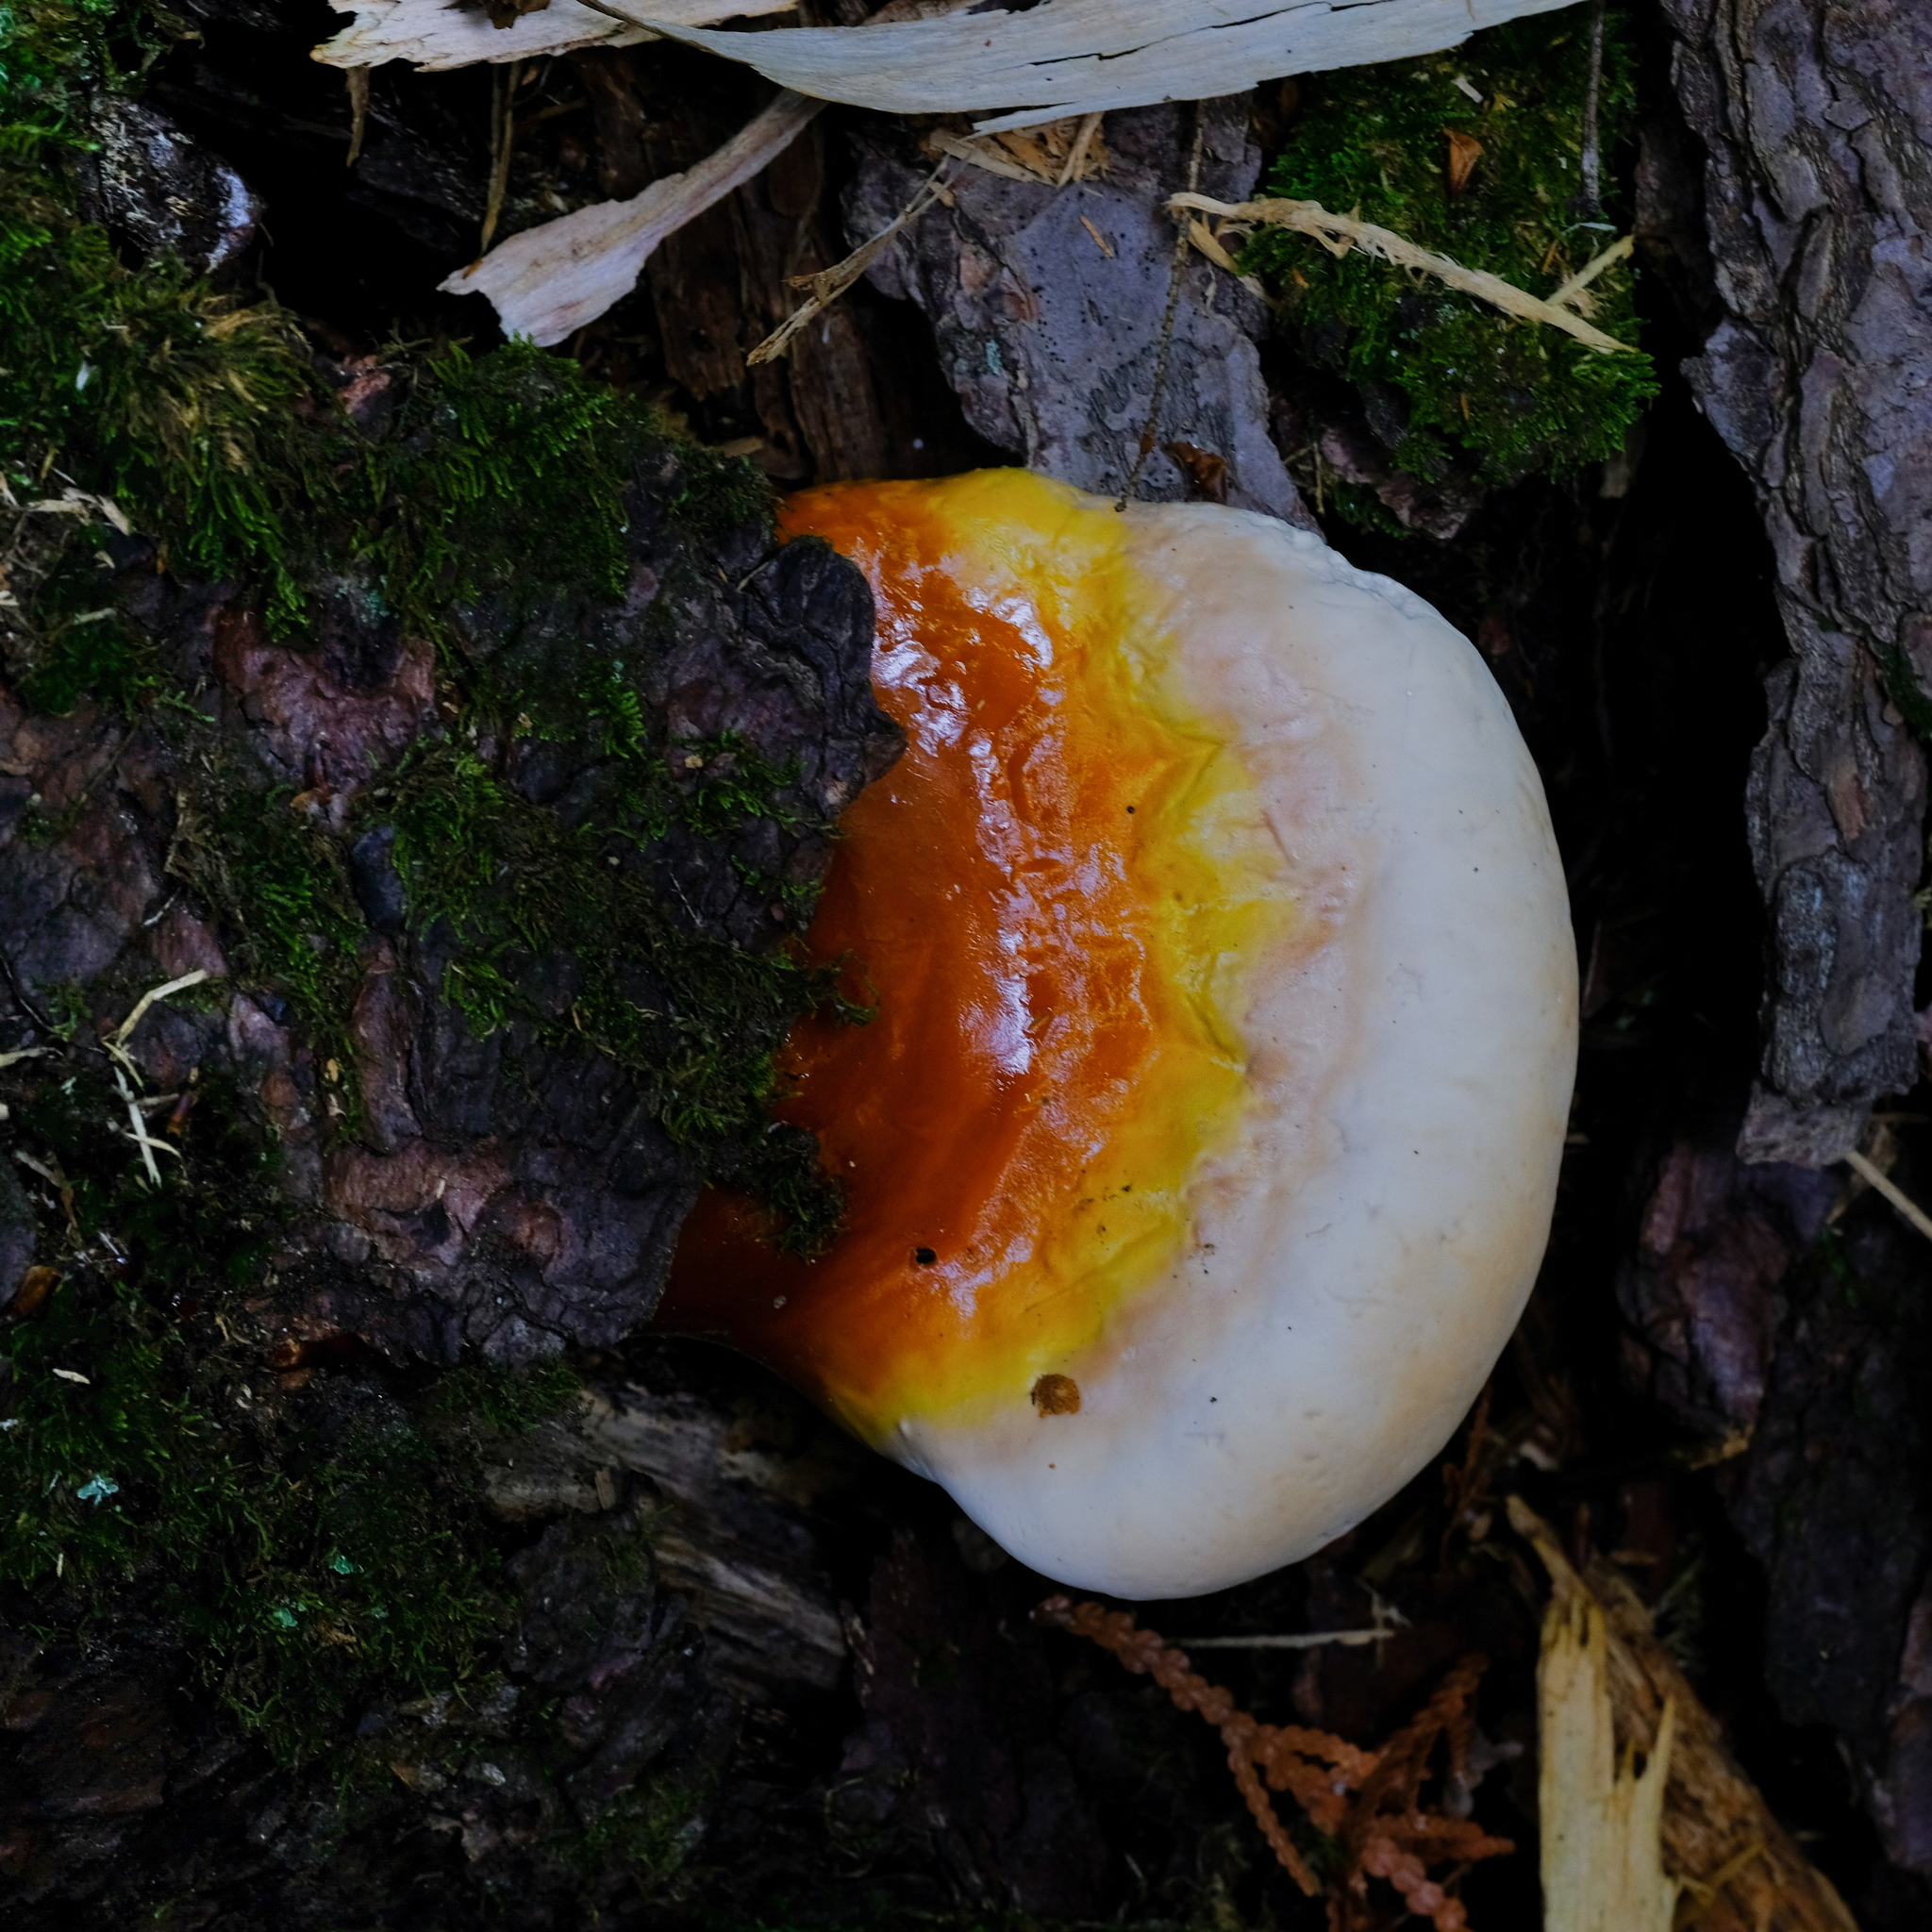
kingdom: Fungi
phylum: Basidiomycota
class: Agaricomycetes
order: Polyporales
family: Polyporaceae
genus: Ganoderma
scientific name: Ganoderma tsugae
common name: Hemlock varnish shelf
